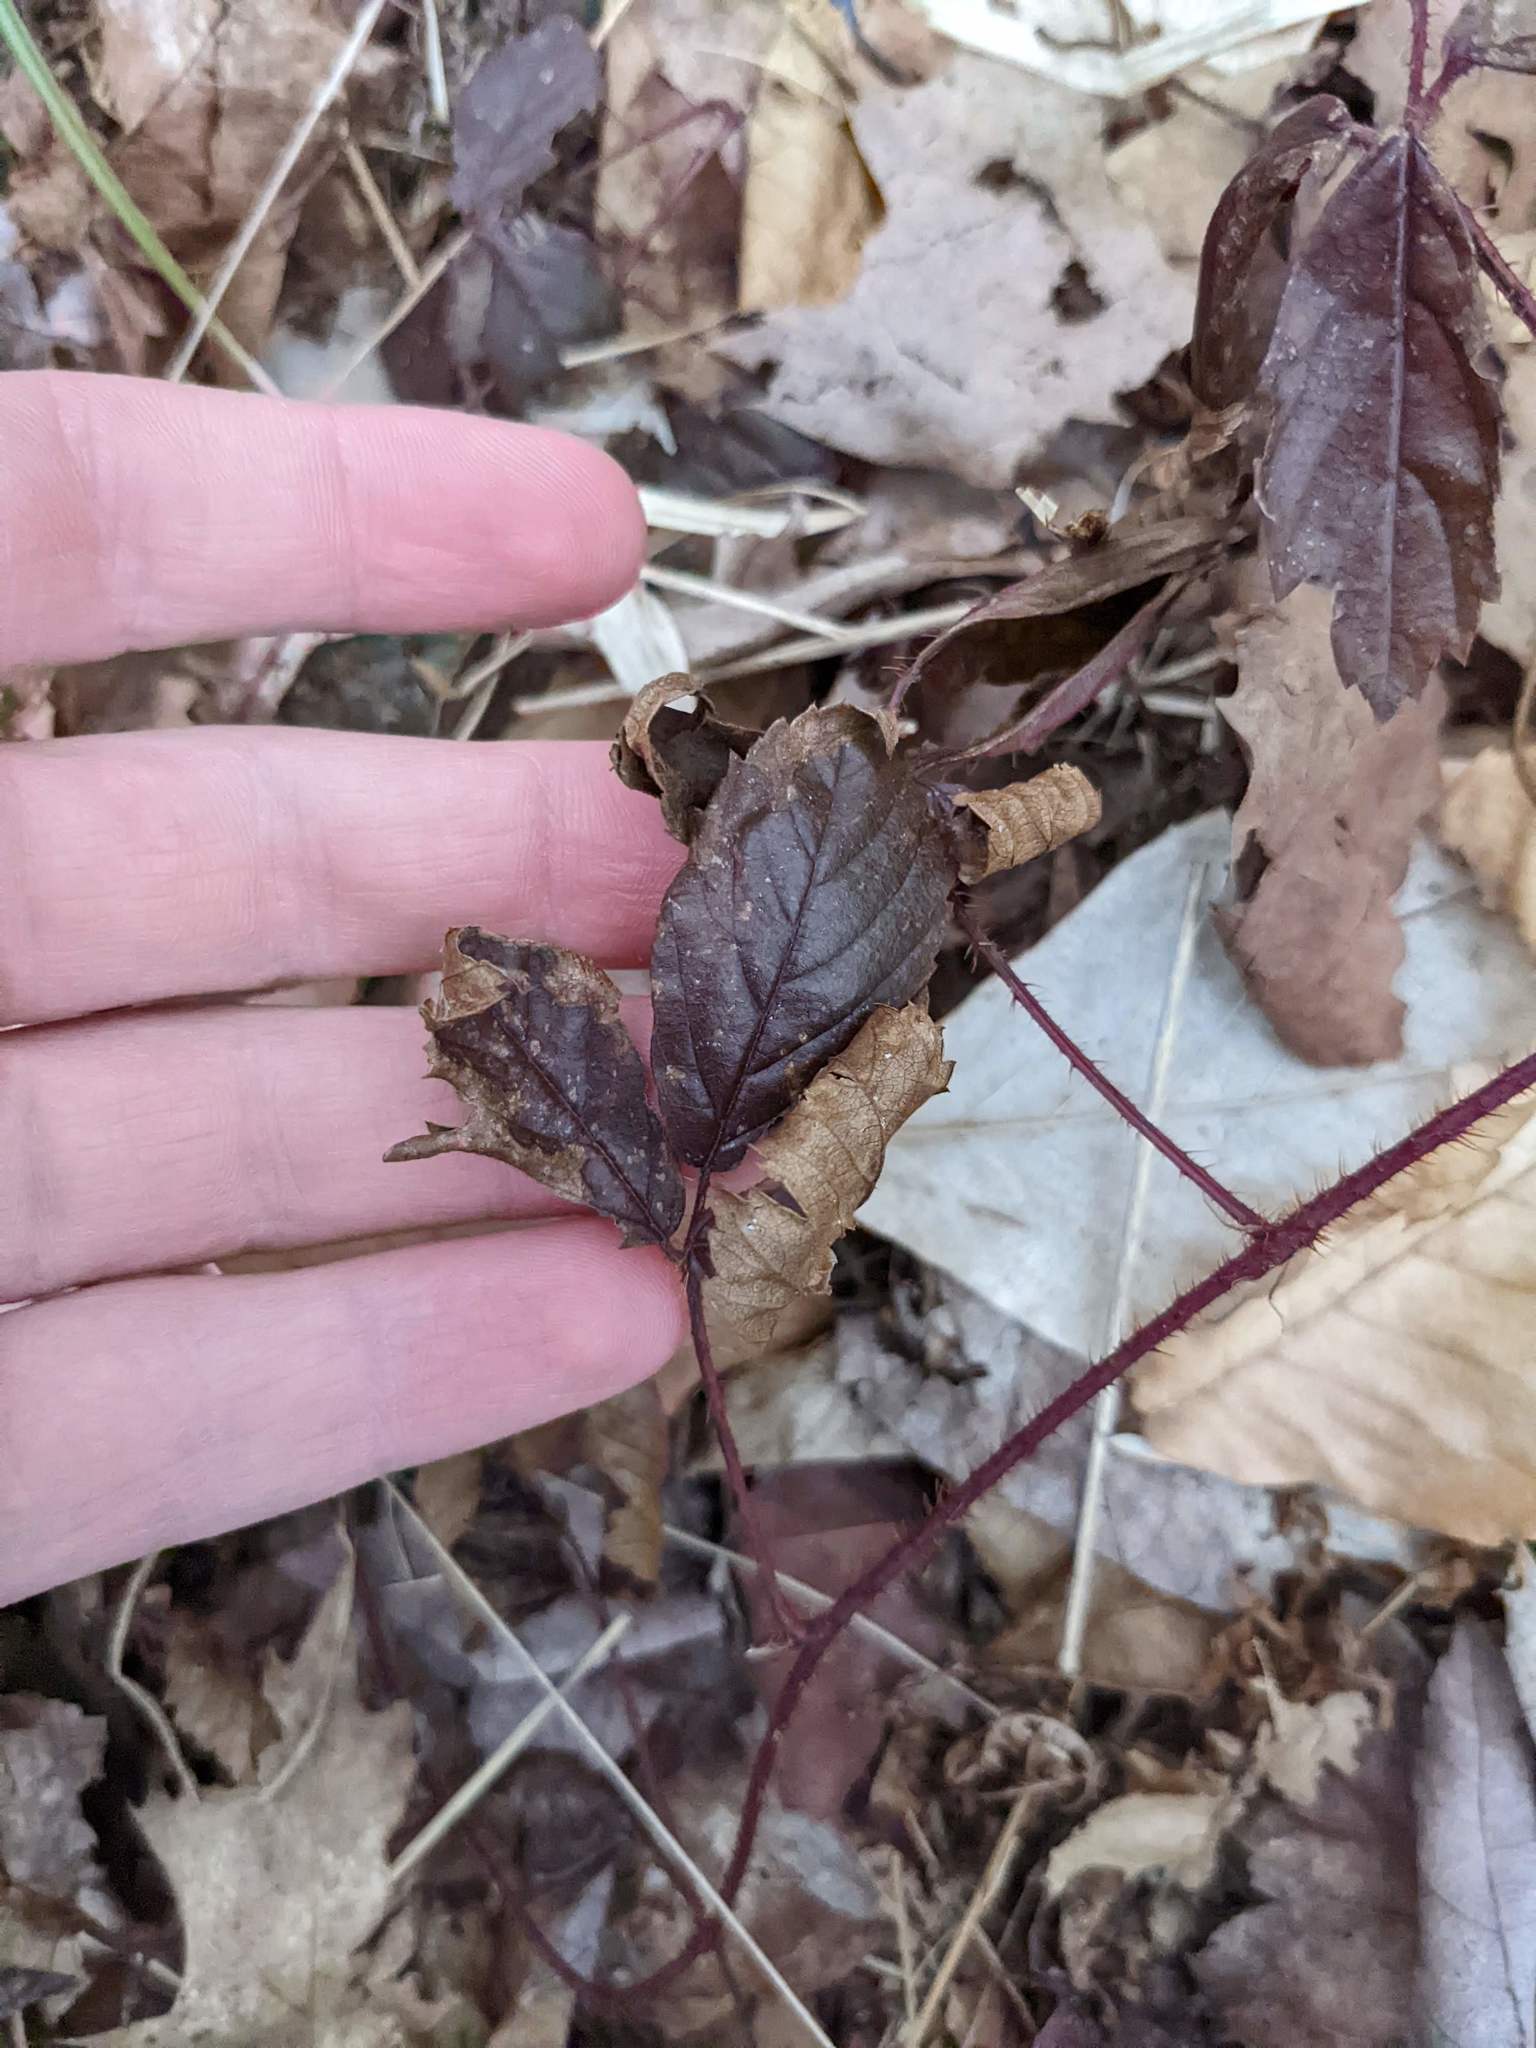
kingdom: Plantae
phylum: Tracheophyta
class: Magnoliopsida
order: Rosales
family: Rosaceae
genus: Rubus
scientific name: Rubus hispidus
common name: Running blackberry
